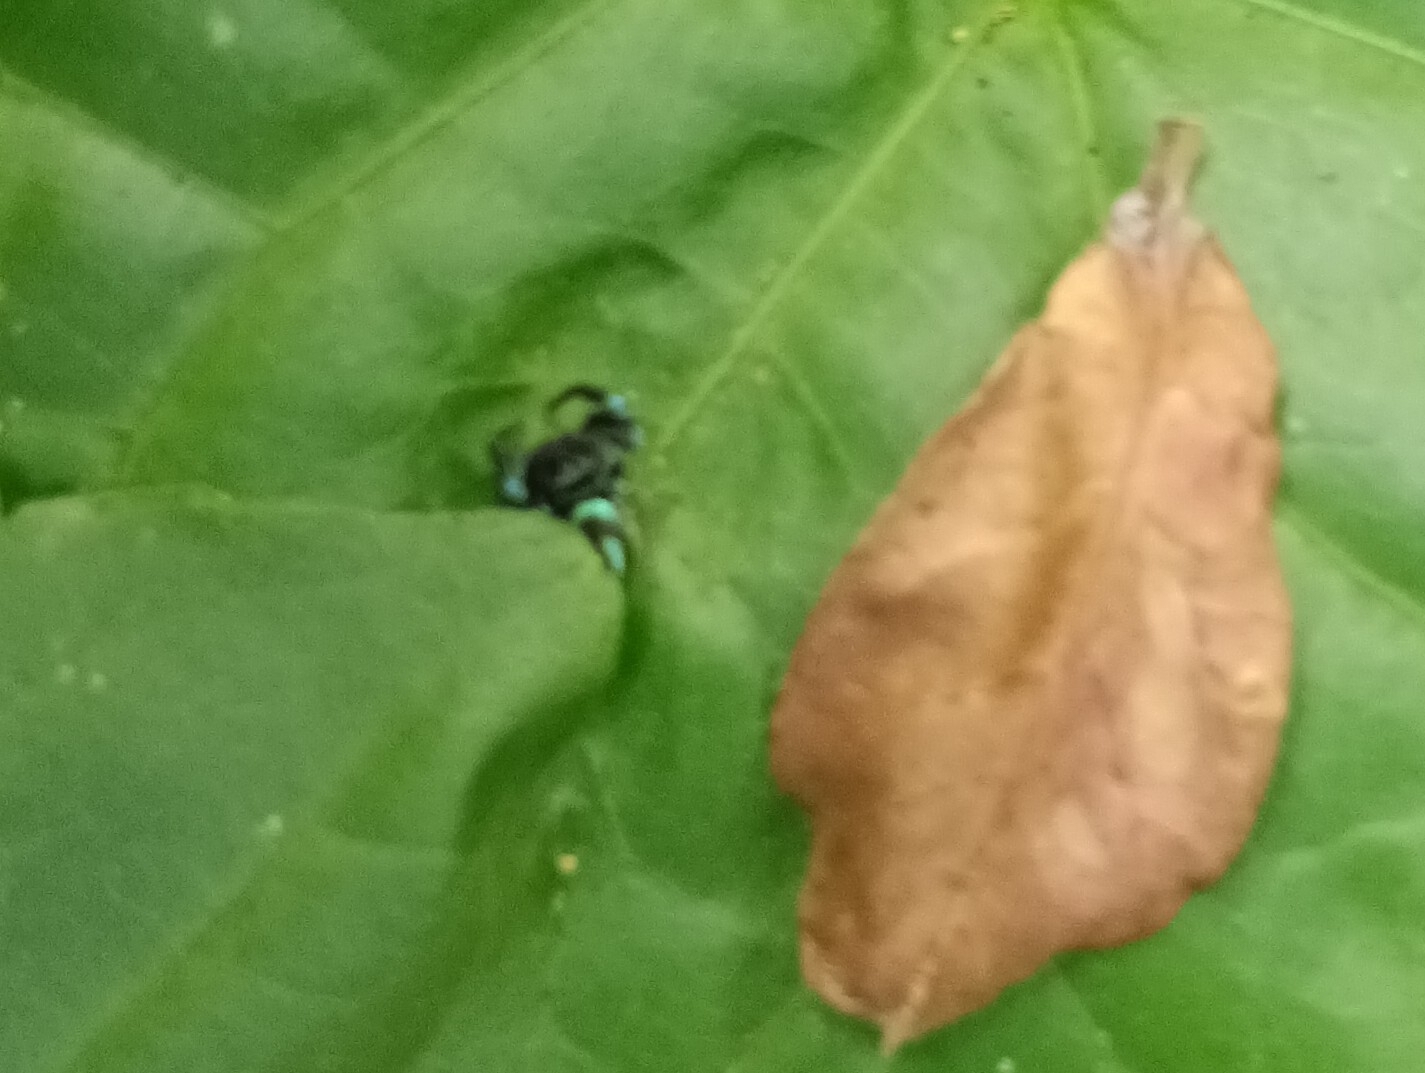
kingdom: Animalia
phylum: Arthropoda
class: Arachnida
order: Araneae
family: Salticidae
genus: Thiania
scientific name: Thiania bhamoensis
